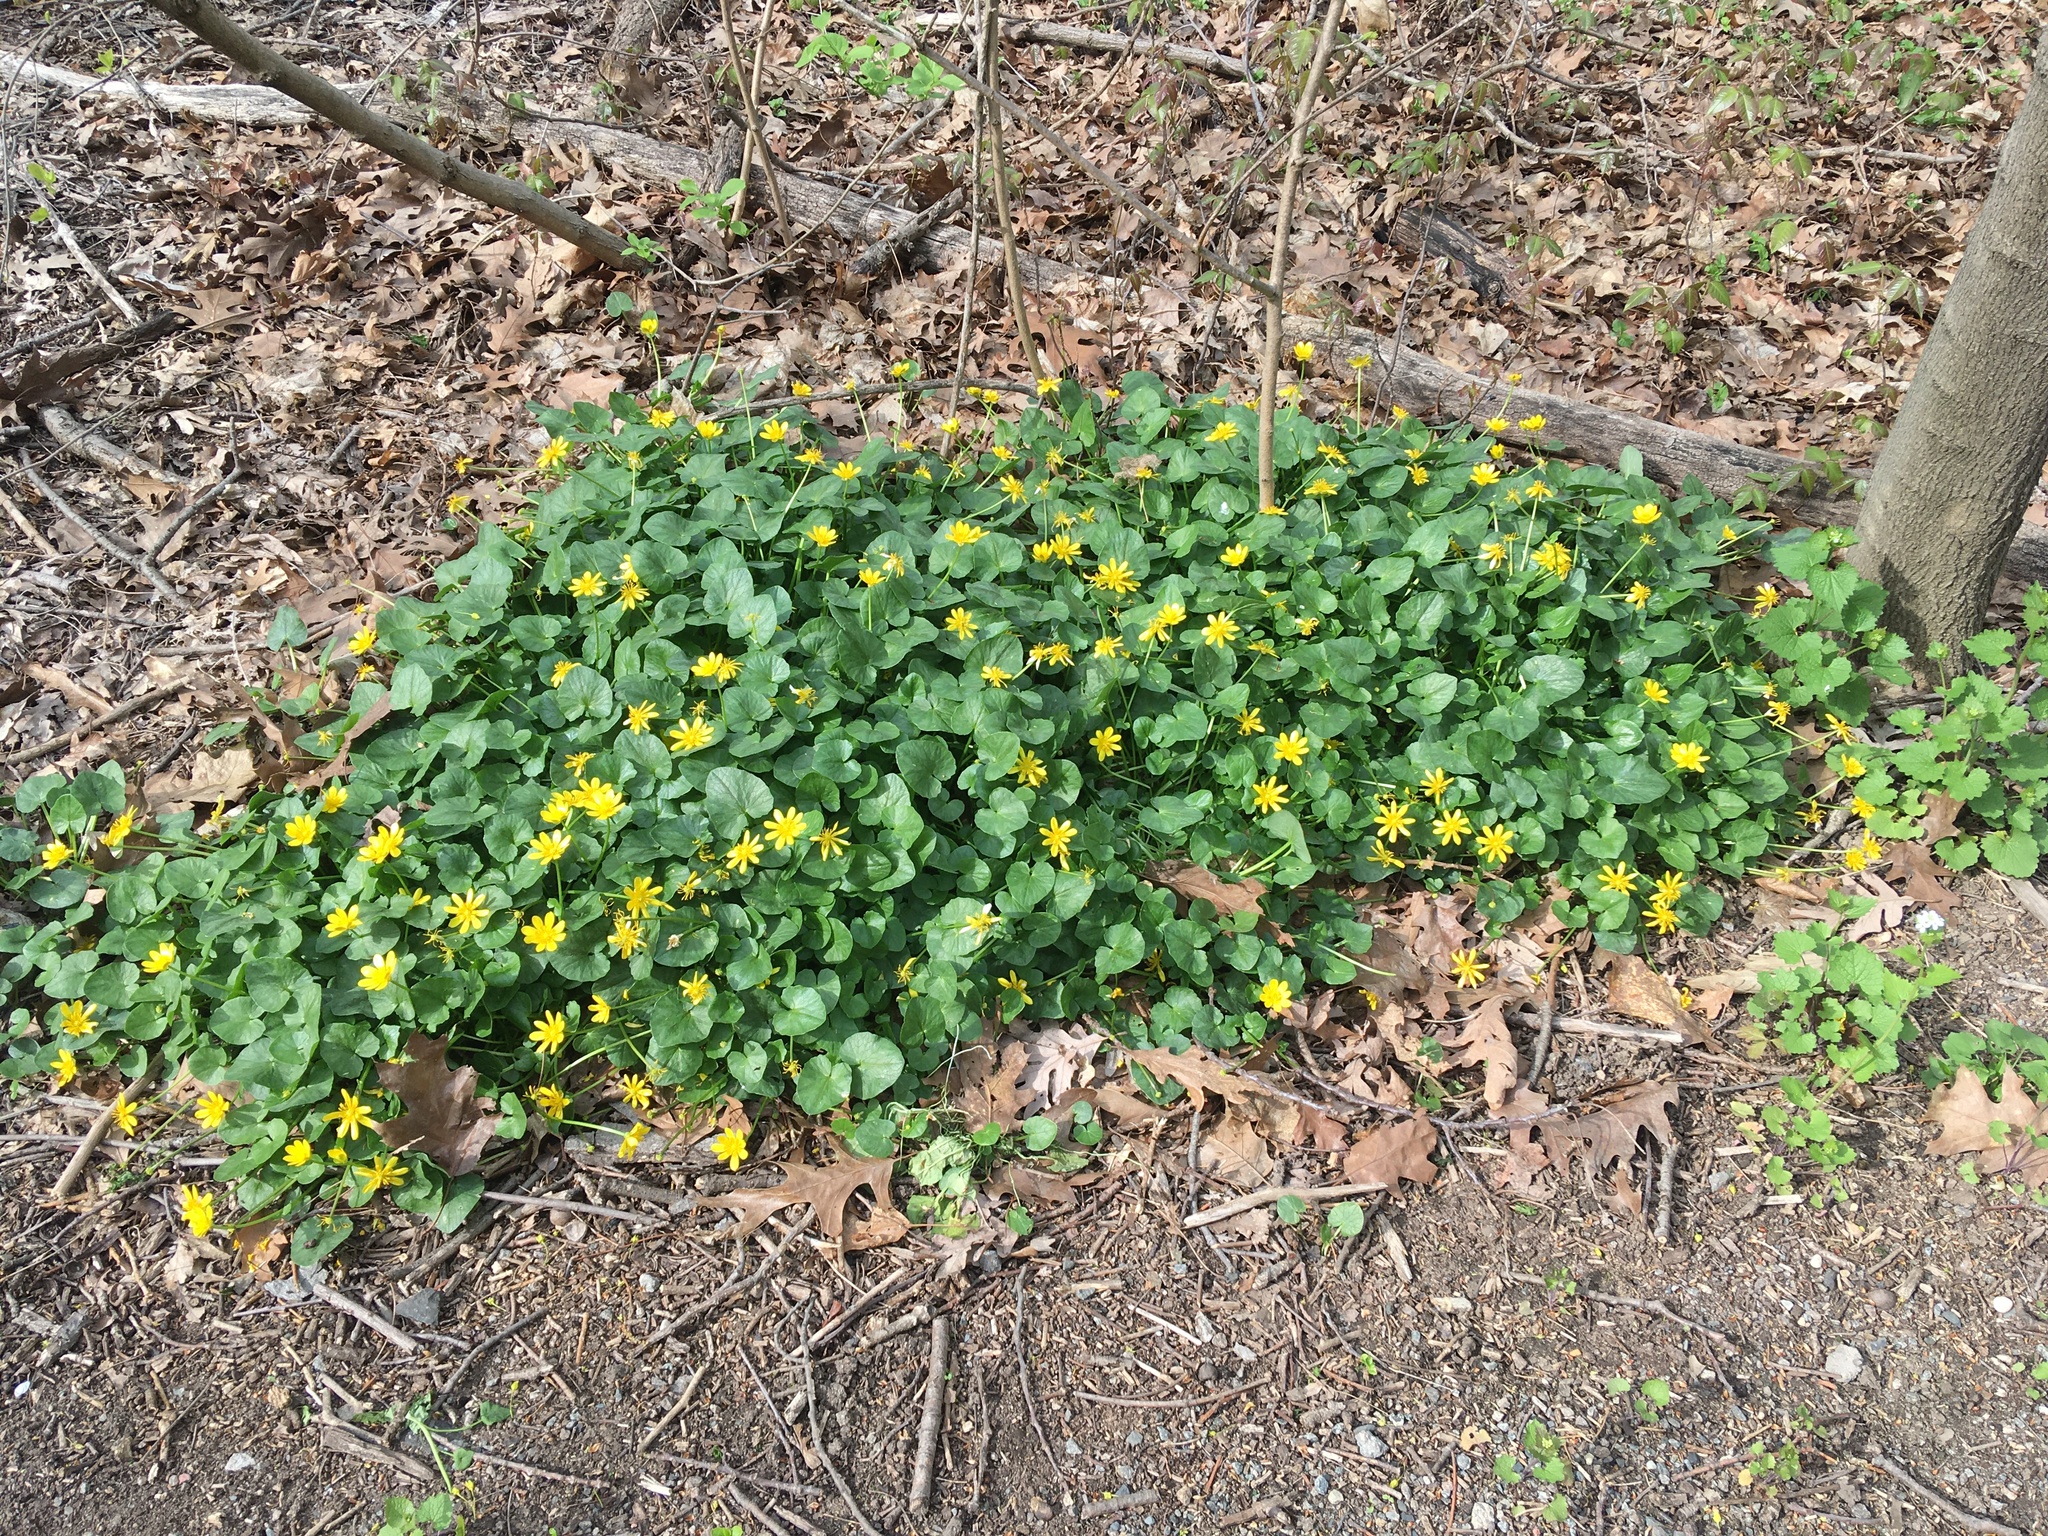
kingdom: Plantae
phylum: Tracheophyta
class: Magnoliopsida
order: Ranunculales
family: Ranunculaceae
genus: Ficaria
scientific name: Ficaria verna
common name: Lesser celandine
